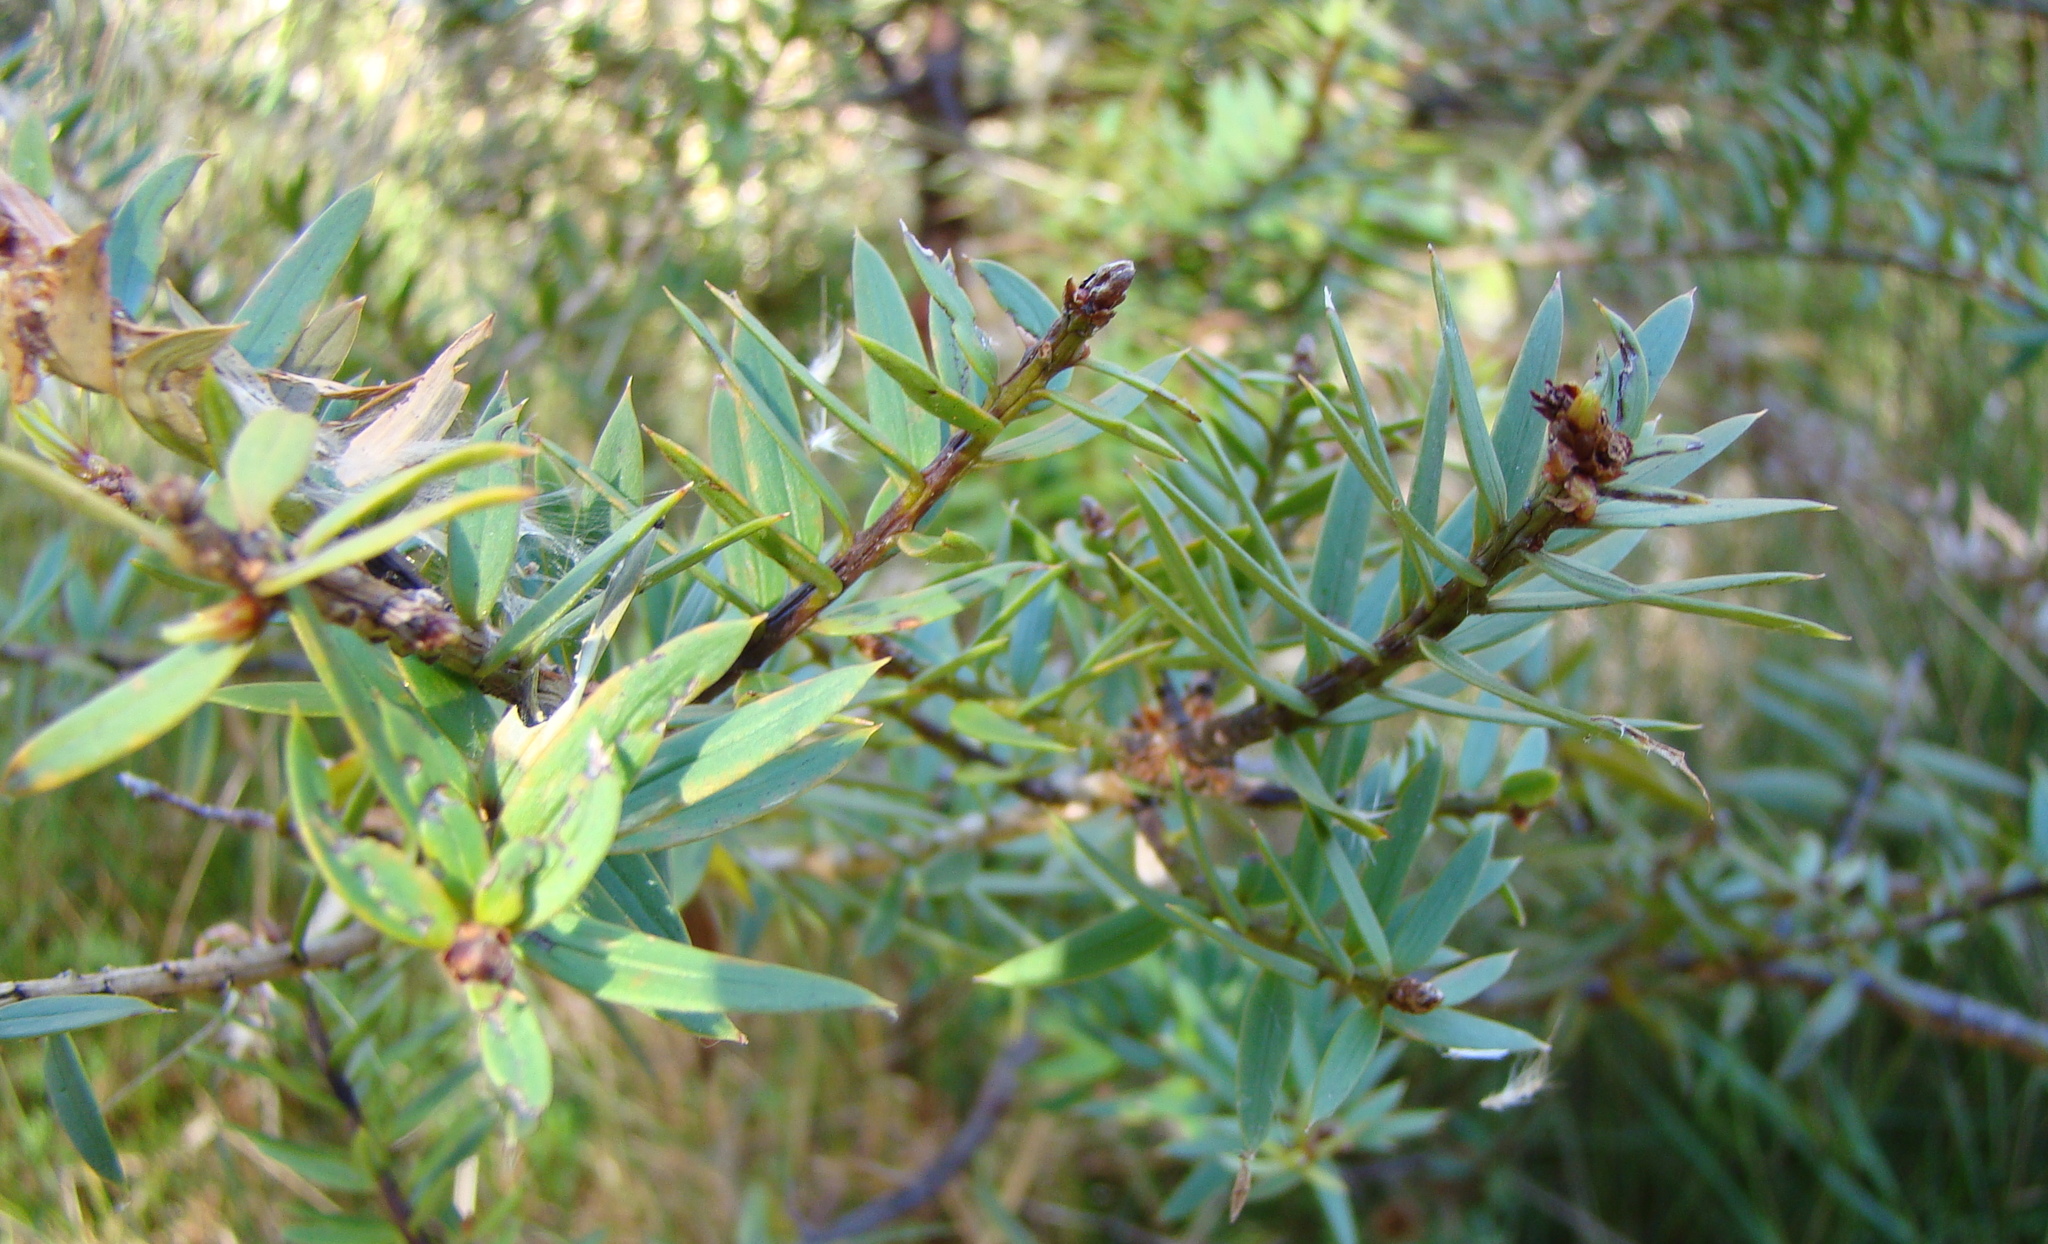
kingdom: Plantae
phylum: Tracheophyta
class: Pinopsida
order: Pinales
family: Podocarpaceae
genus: Podocarpus
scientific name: Podocarpus laetus
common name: Hall's totara
